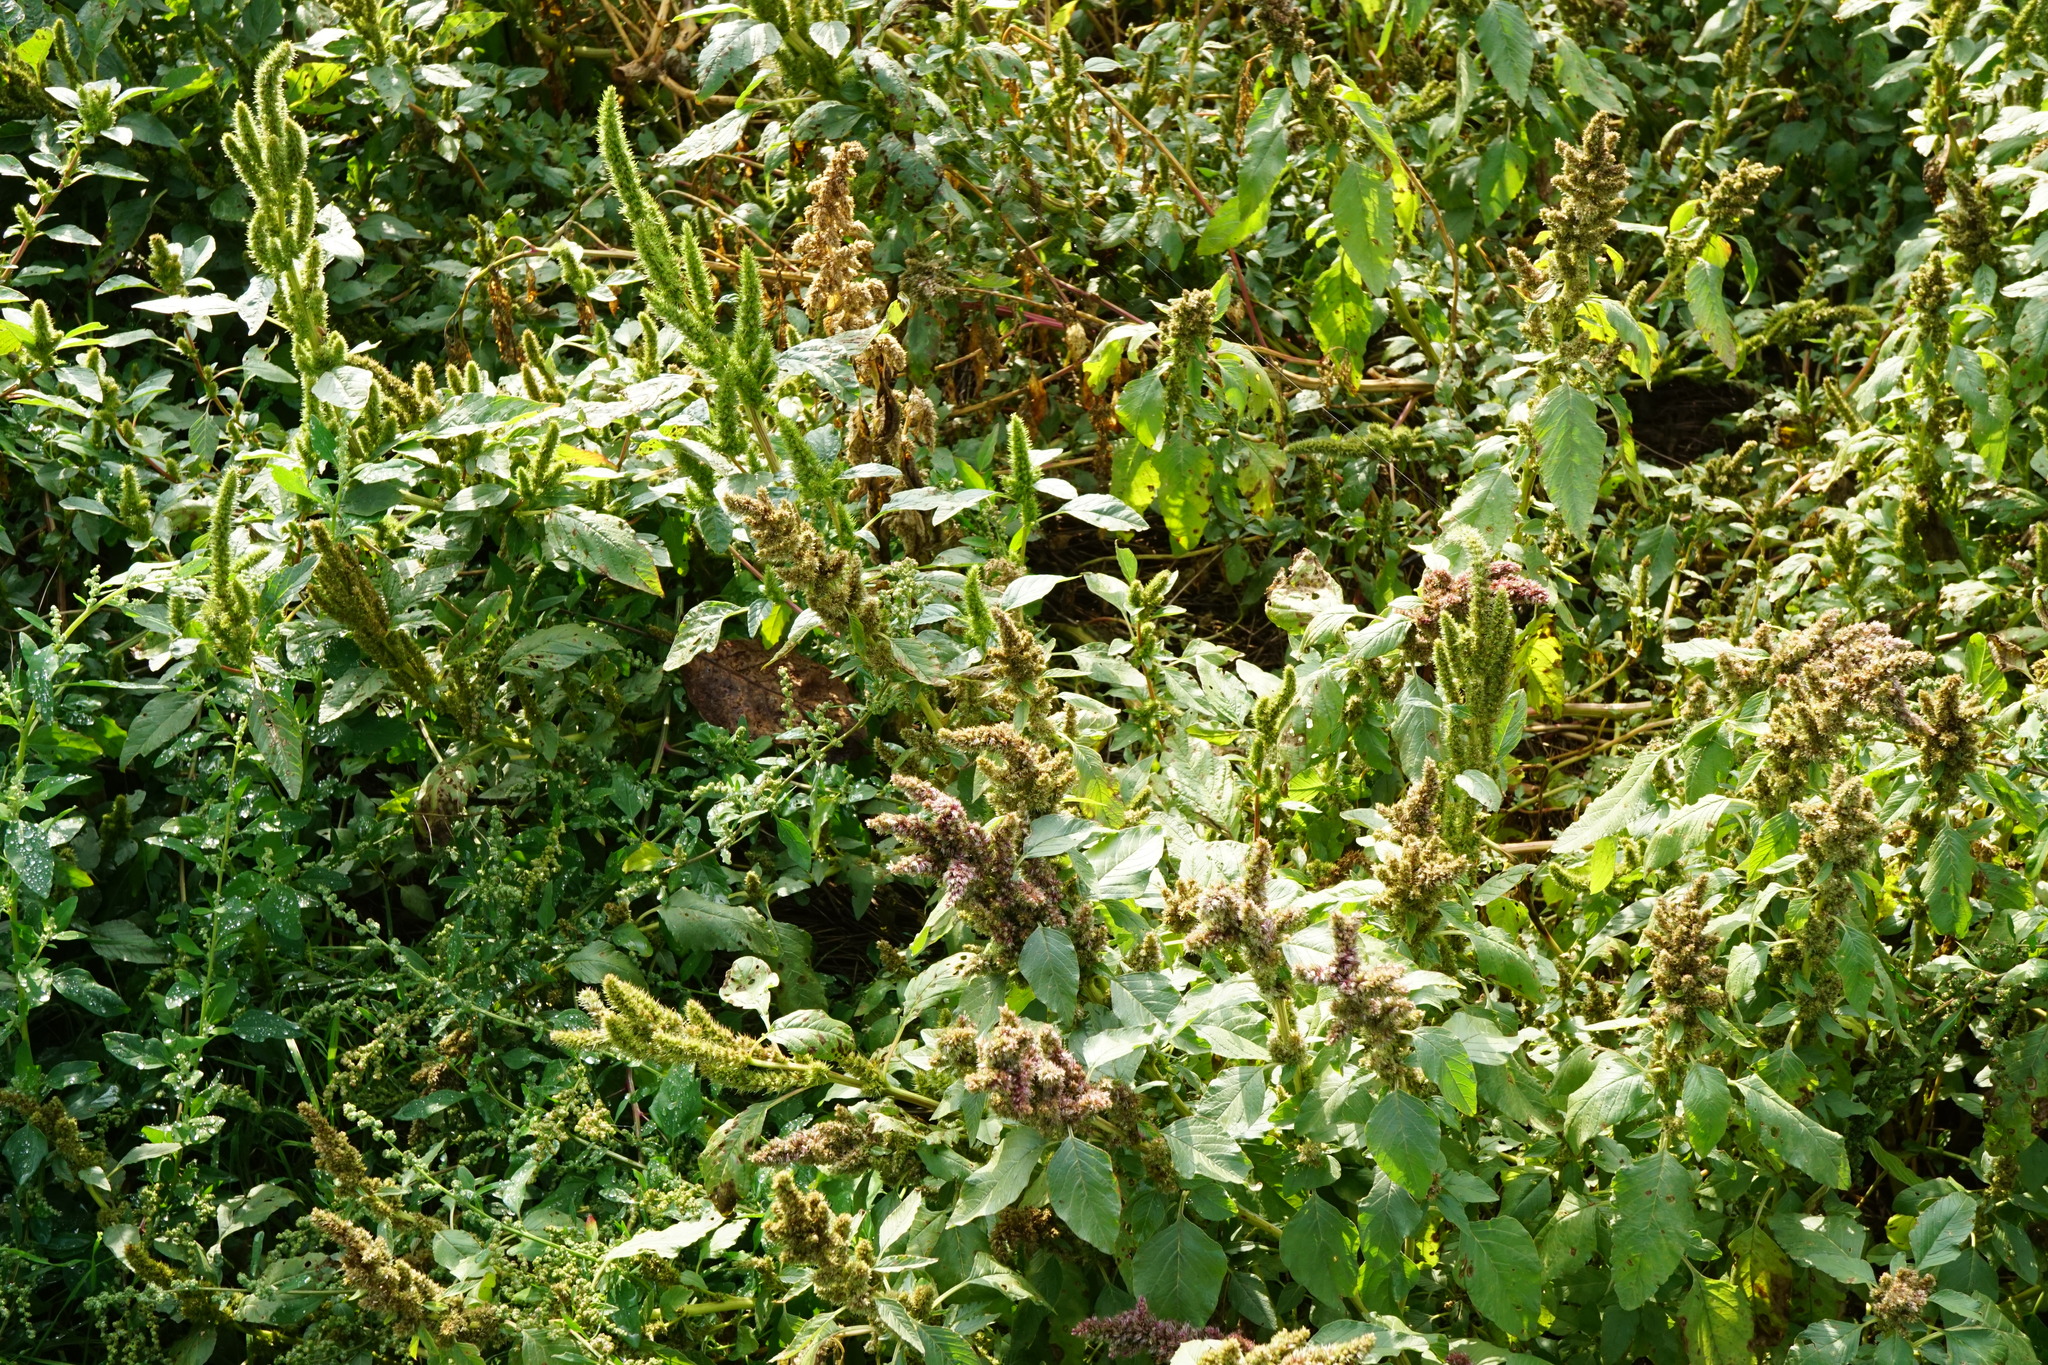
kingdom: Plantae
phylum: Tracheophyta
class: Magnoliopsida
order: Caryophyllales
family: Amaranthaceae
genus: Amaranthus
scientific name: Amaranthus powellii
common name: Powell's amaranth
